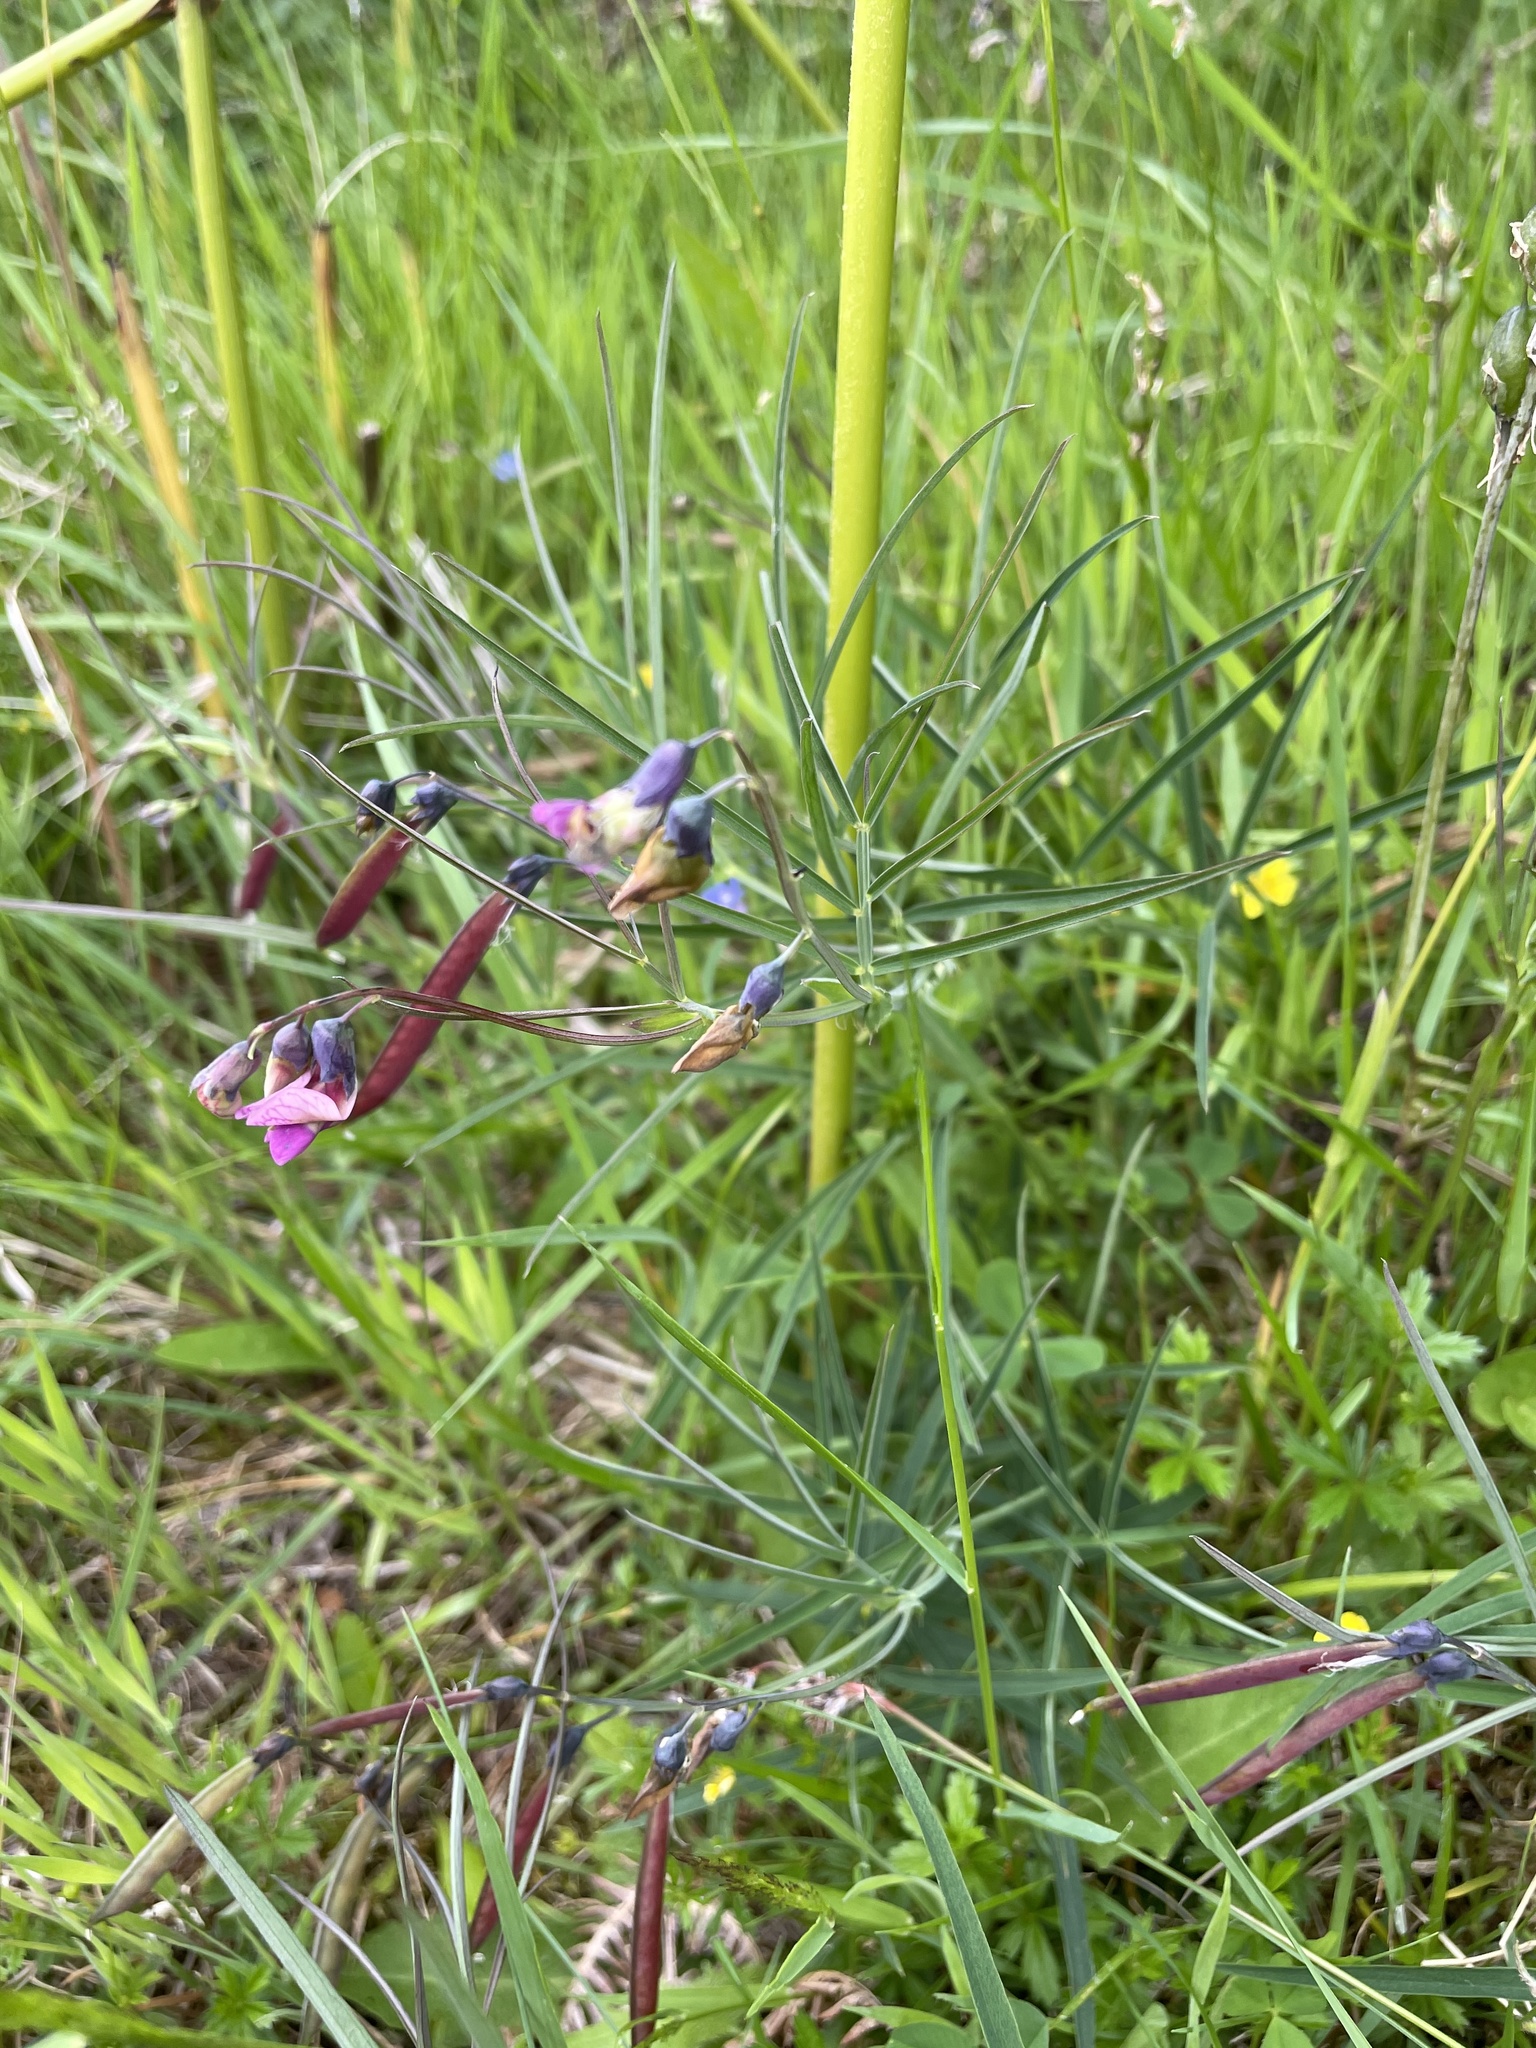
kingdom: Plantae
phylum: Tracheophyta
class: Magnoliopsida
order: Fabales
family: Fabaceae
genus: Lathyrus
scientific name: Lathyrus linifolius
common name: Bitter-vetch
